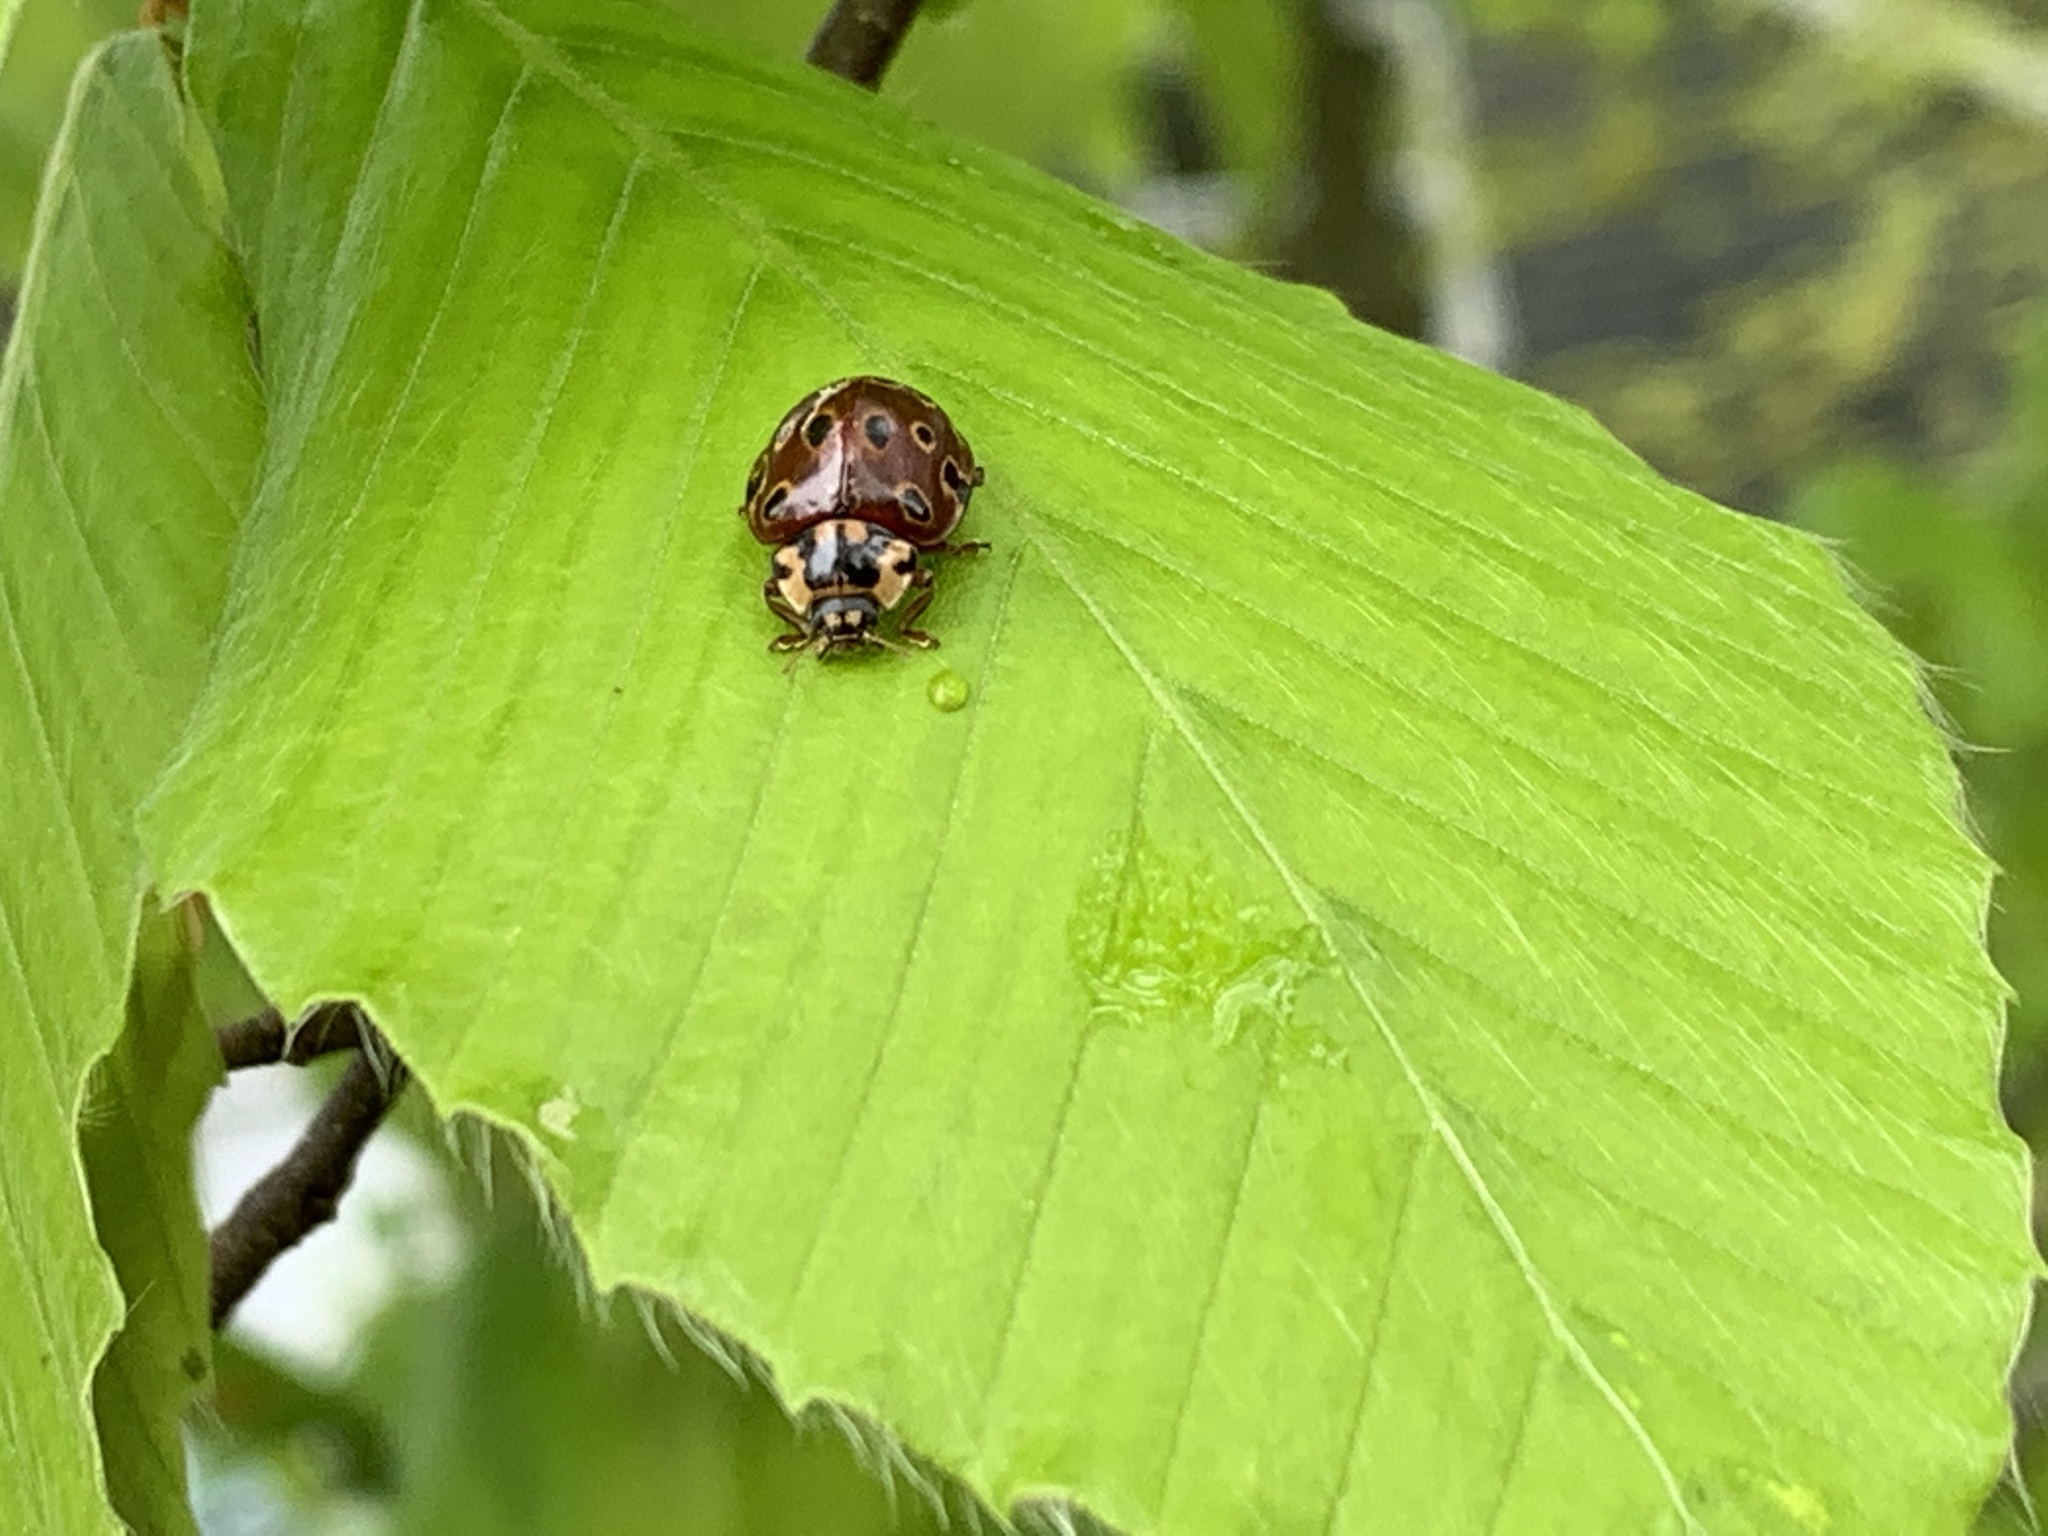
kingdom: Animalia
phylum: Arthropoda
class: Insecta
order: Coleoptera
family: Coccinellidae
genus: Anatis
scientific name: Anatis mali
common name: Eye-spotted lady beetle
